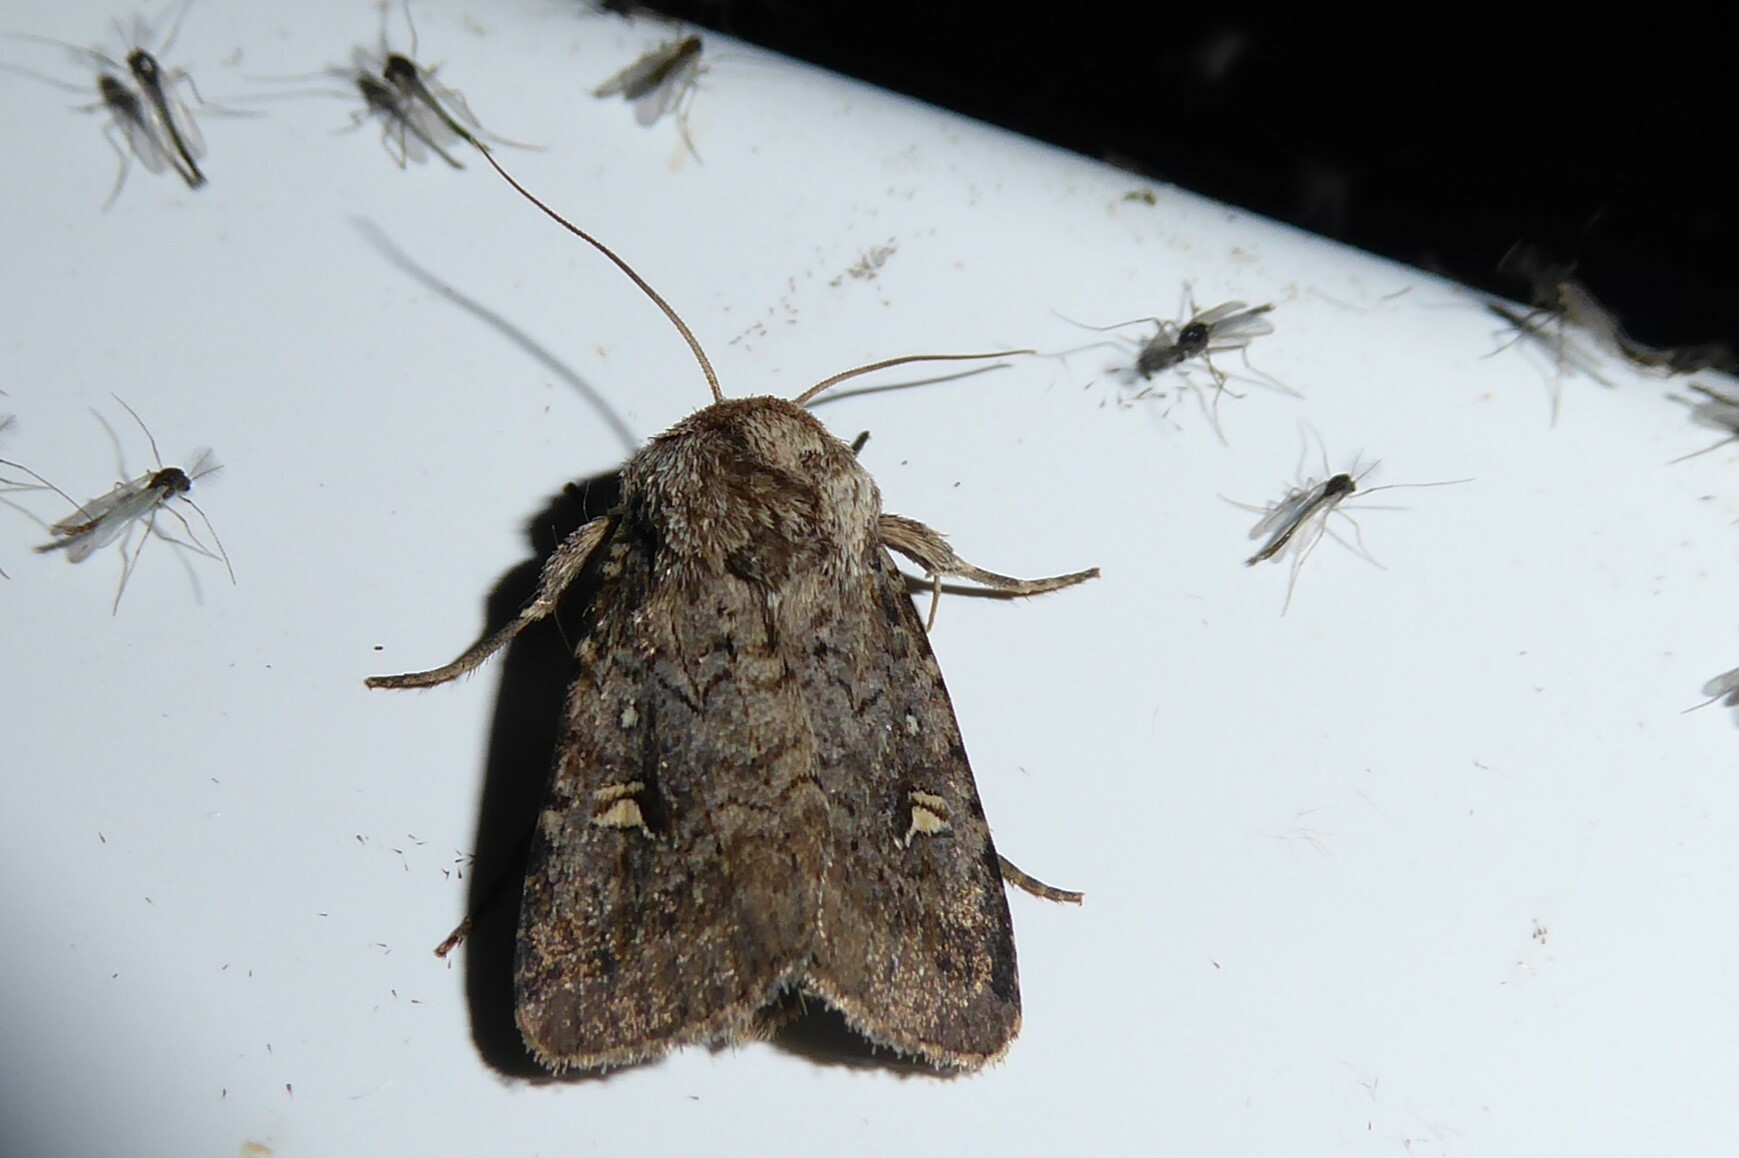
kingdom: Animalia
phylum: Arthropoda
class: Insecta
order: Lepidoptera
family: Noctuidae
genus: Proteuxoa
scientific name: Proteuxoa tetronycha
